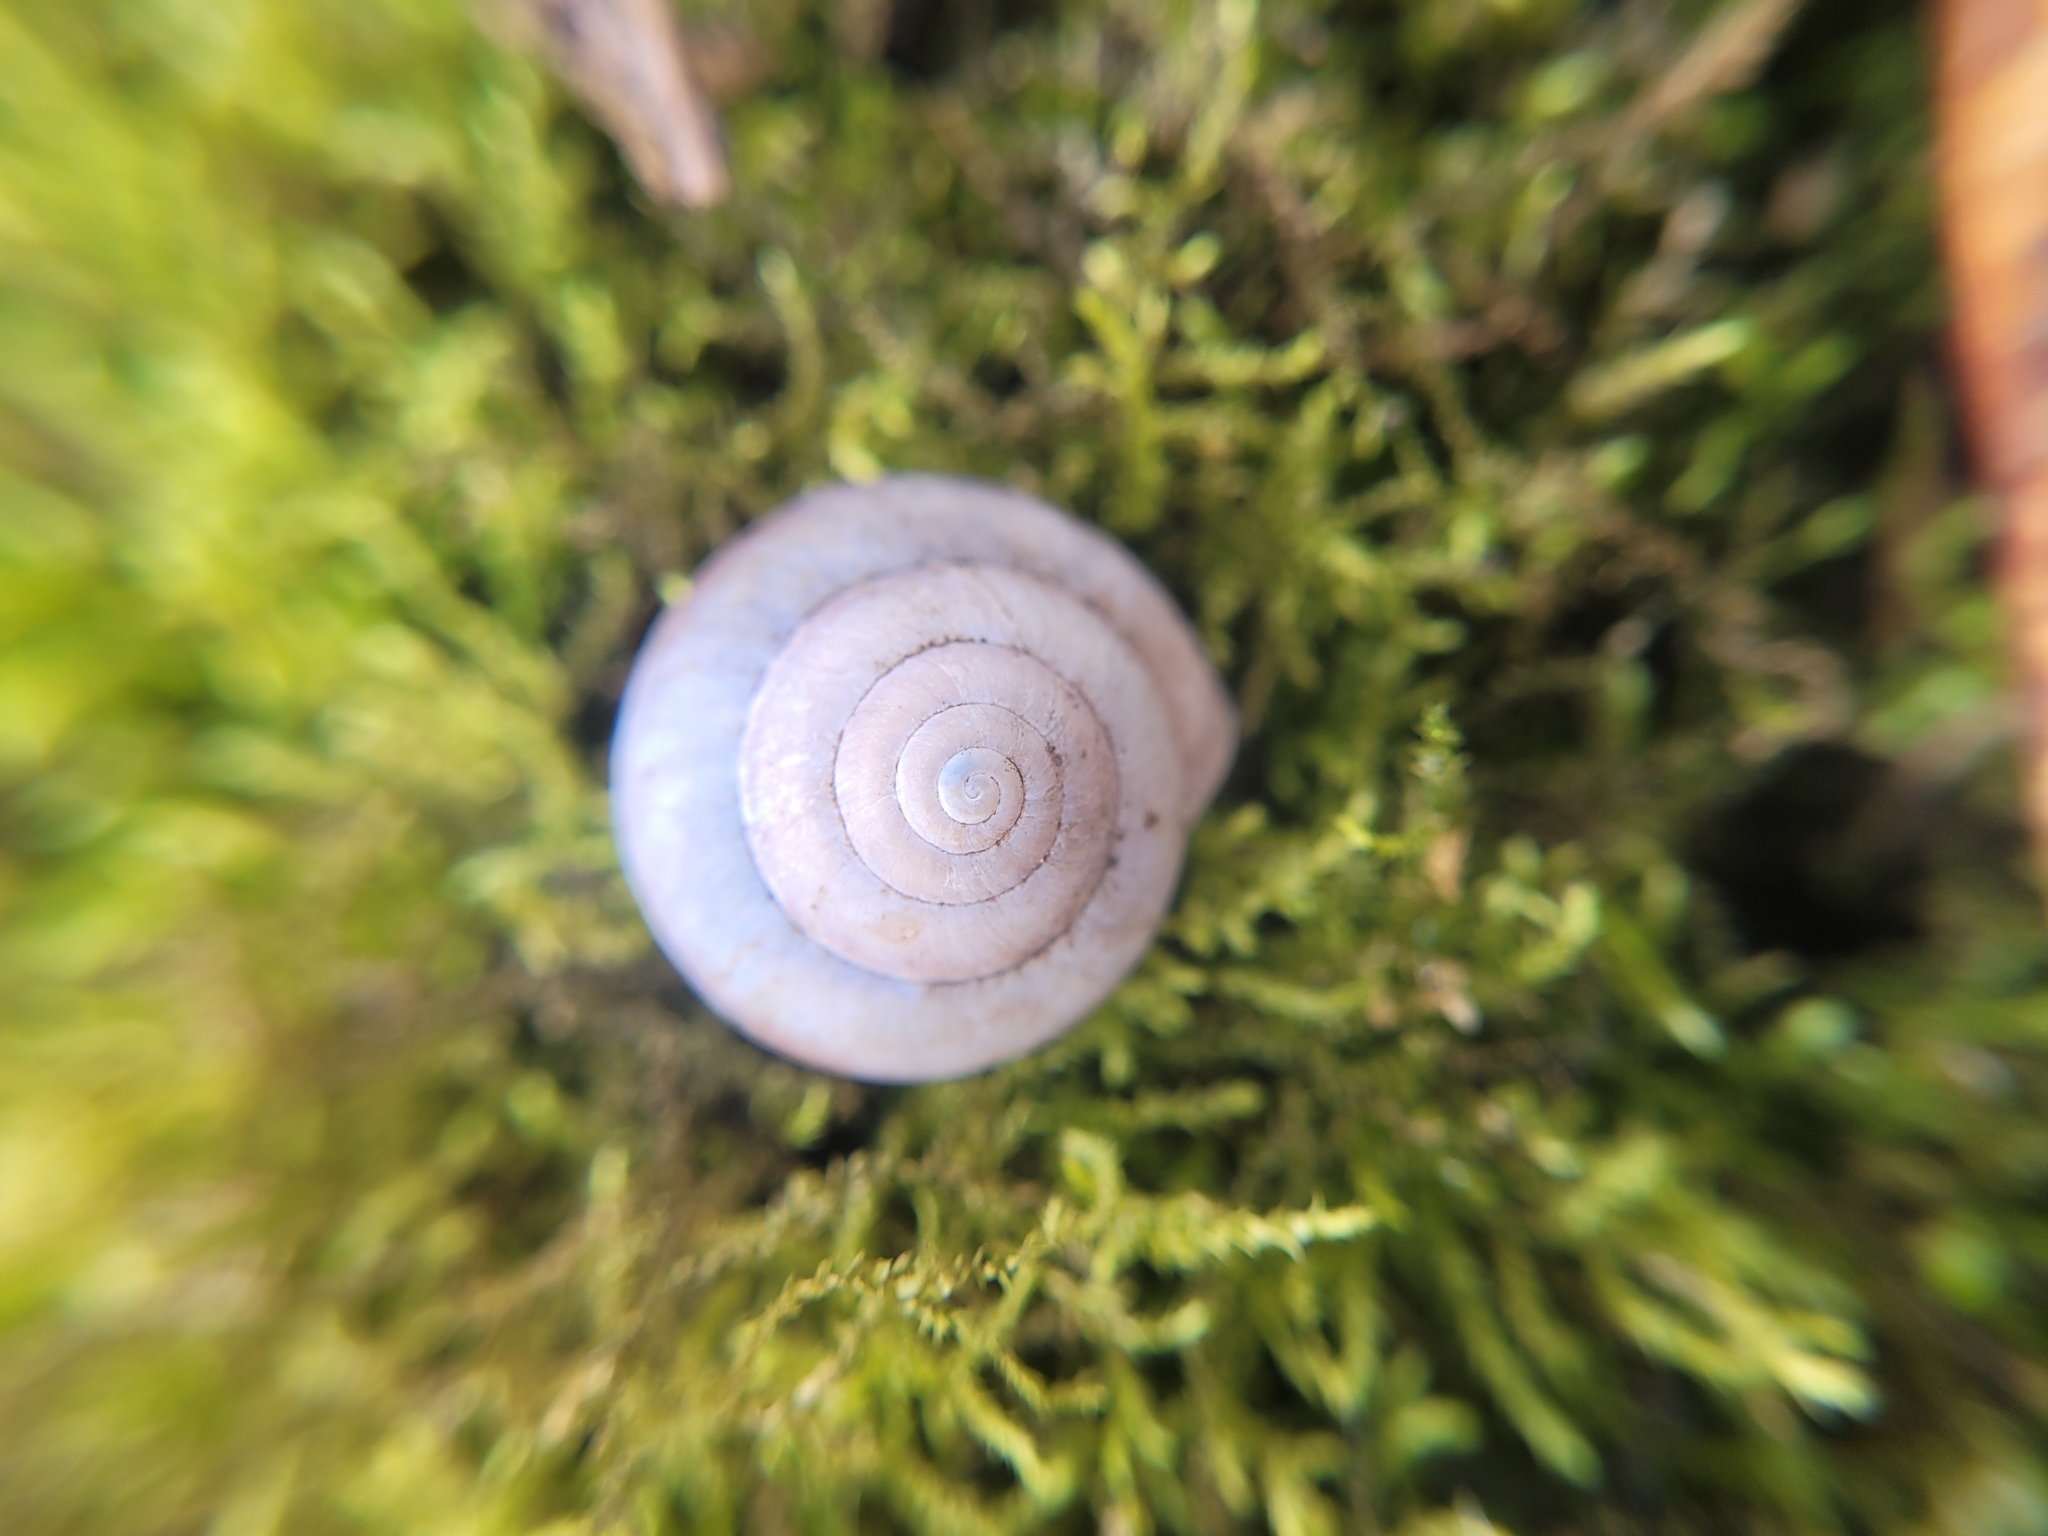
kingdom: Animalia
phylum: Mollusca
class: Gastropoda
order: Stylommatophora
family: Camaenidae
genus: Fruticicola
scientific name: Fruticicola fruticum
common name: Bush snail
